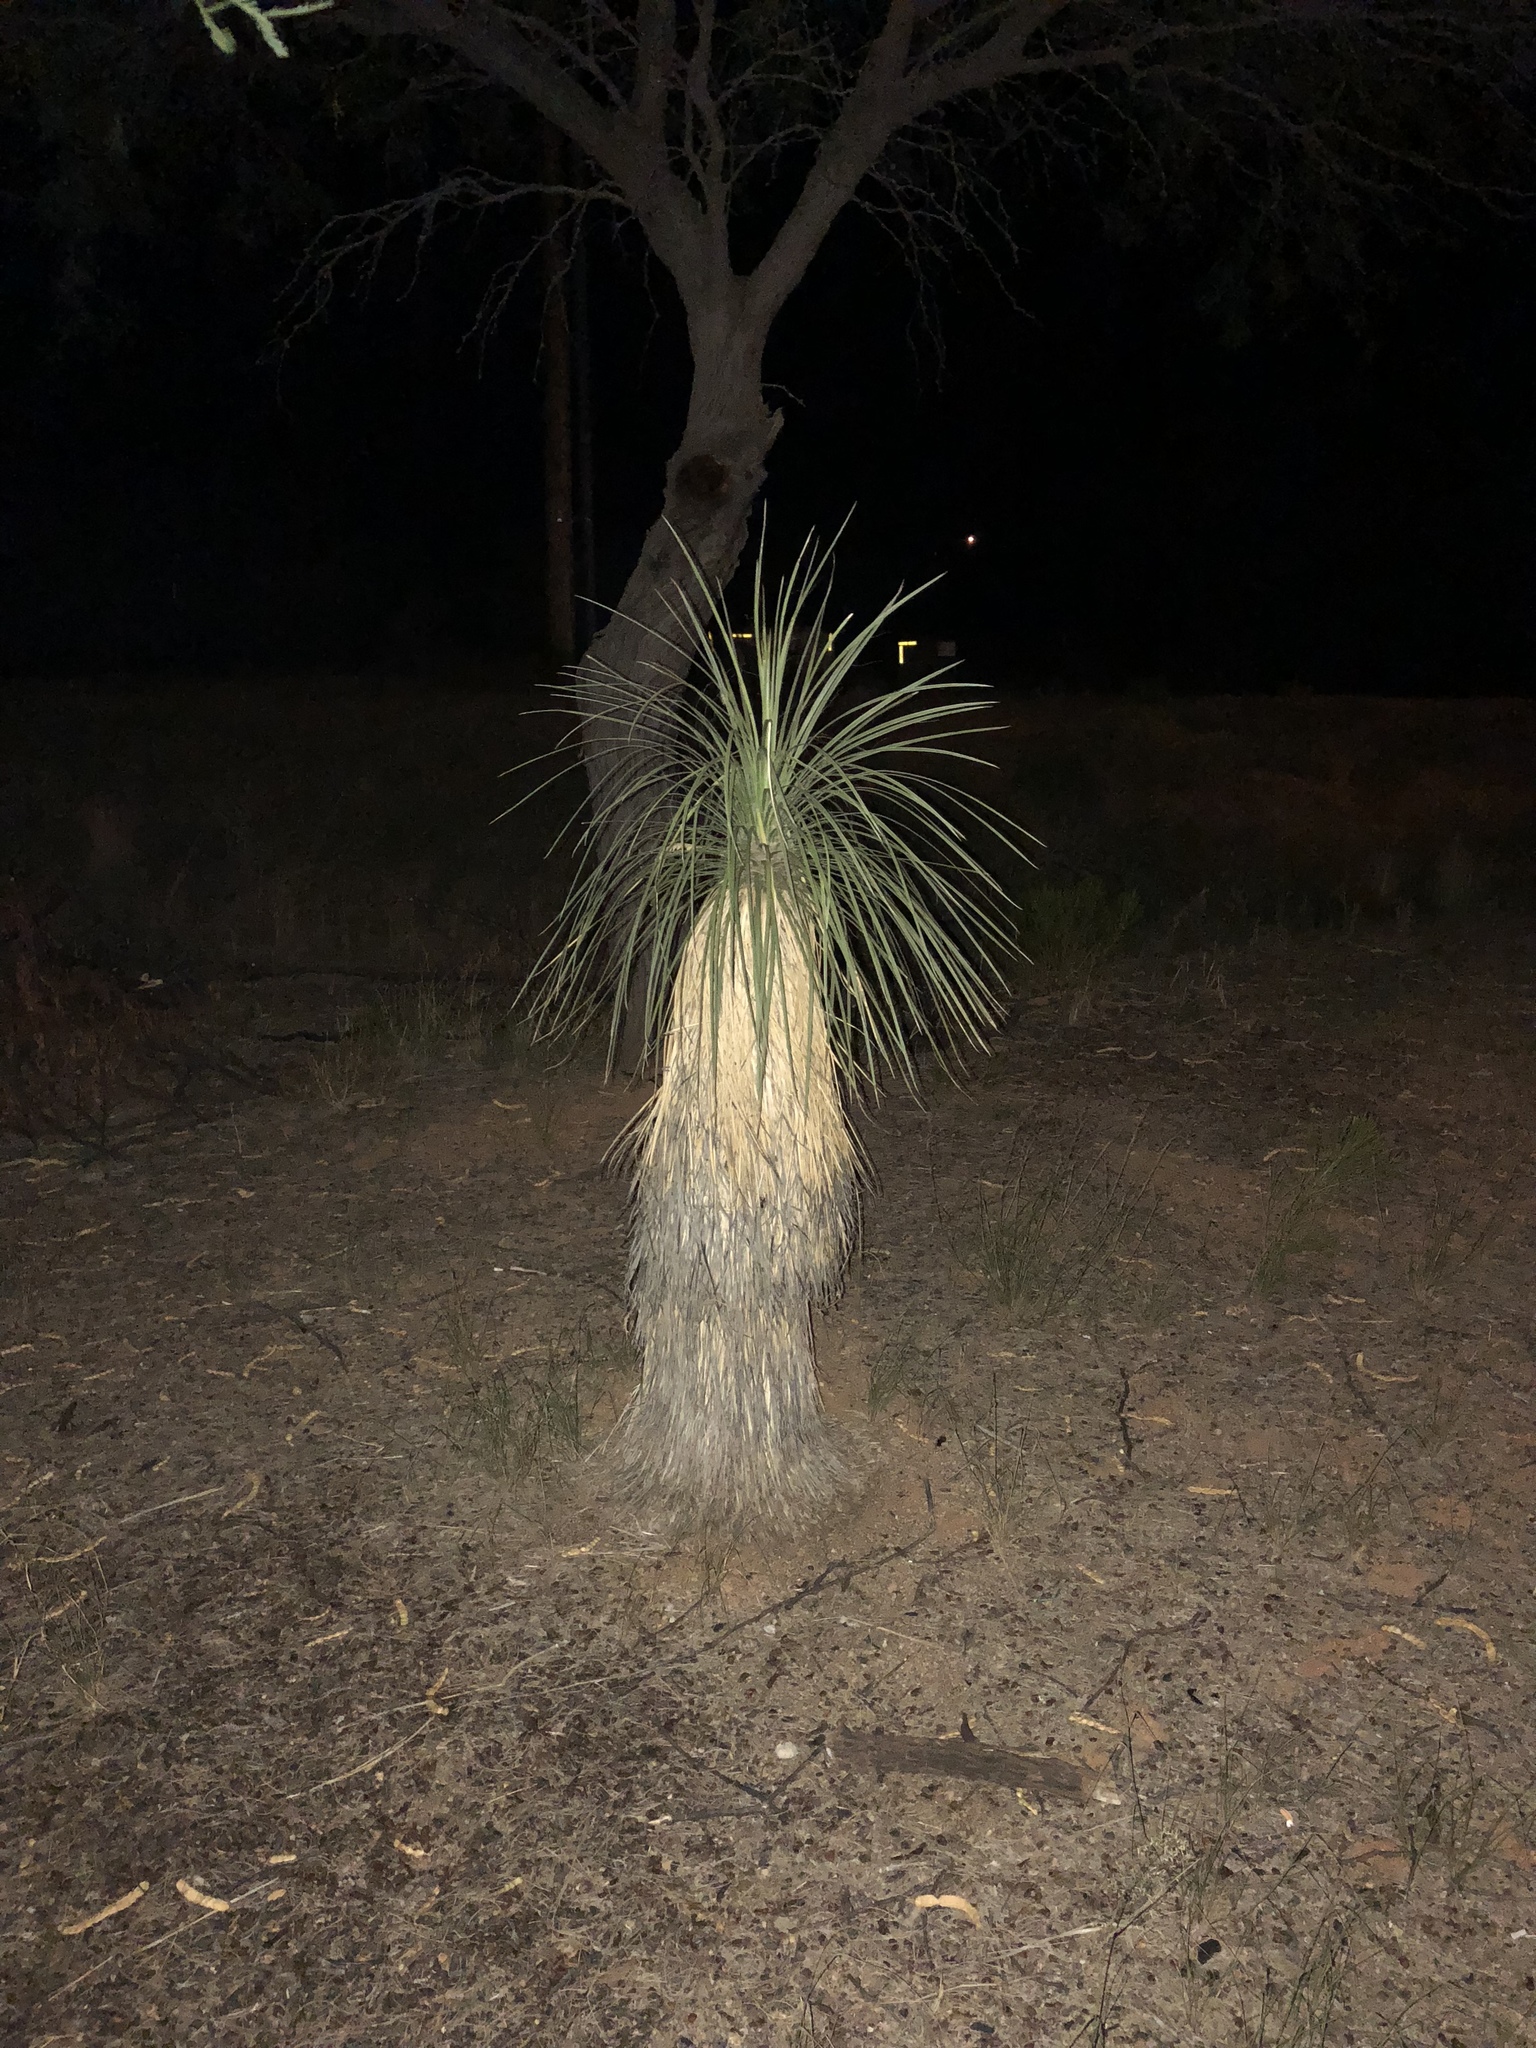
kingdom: Plantae
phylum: Tracheophyta
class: Liliopsida
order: Asparagales
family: Asparagaceae
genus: Yucca
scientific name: Yucca elata
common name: Palmella
